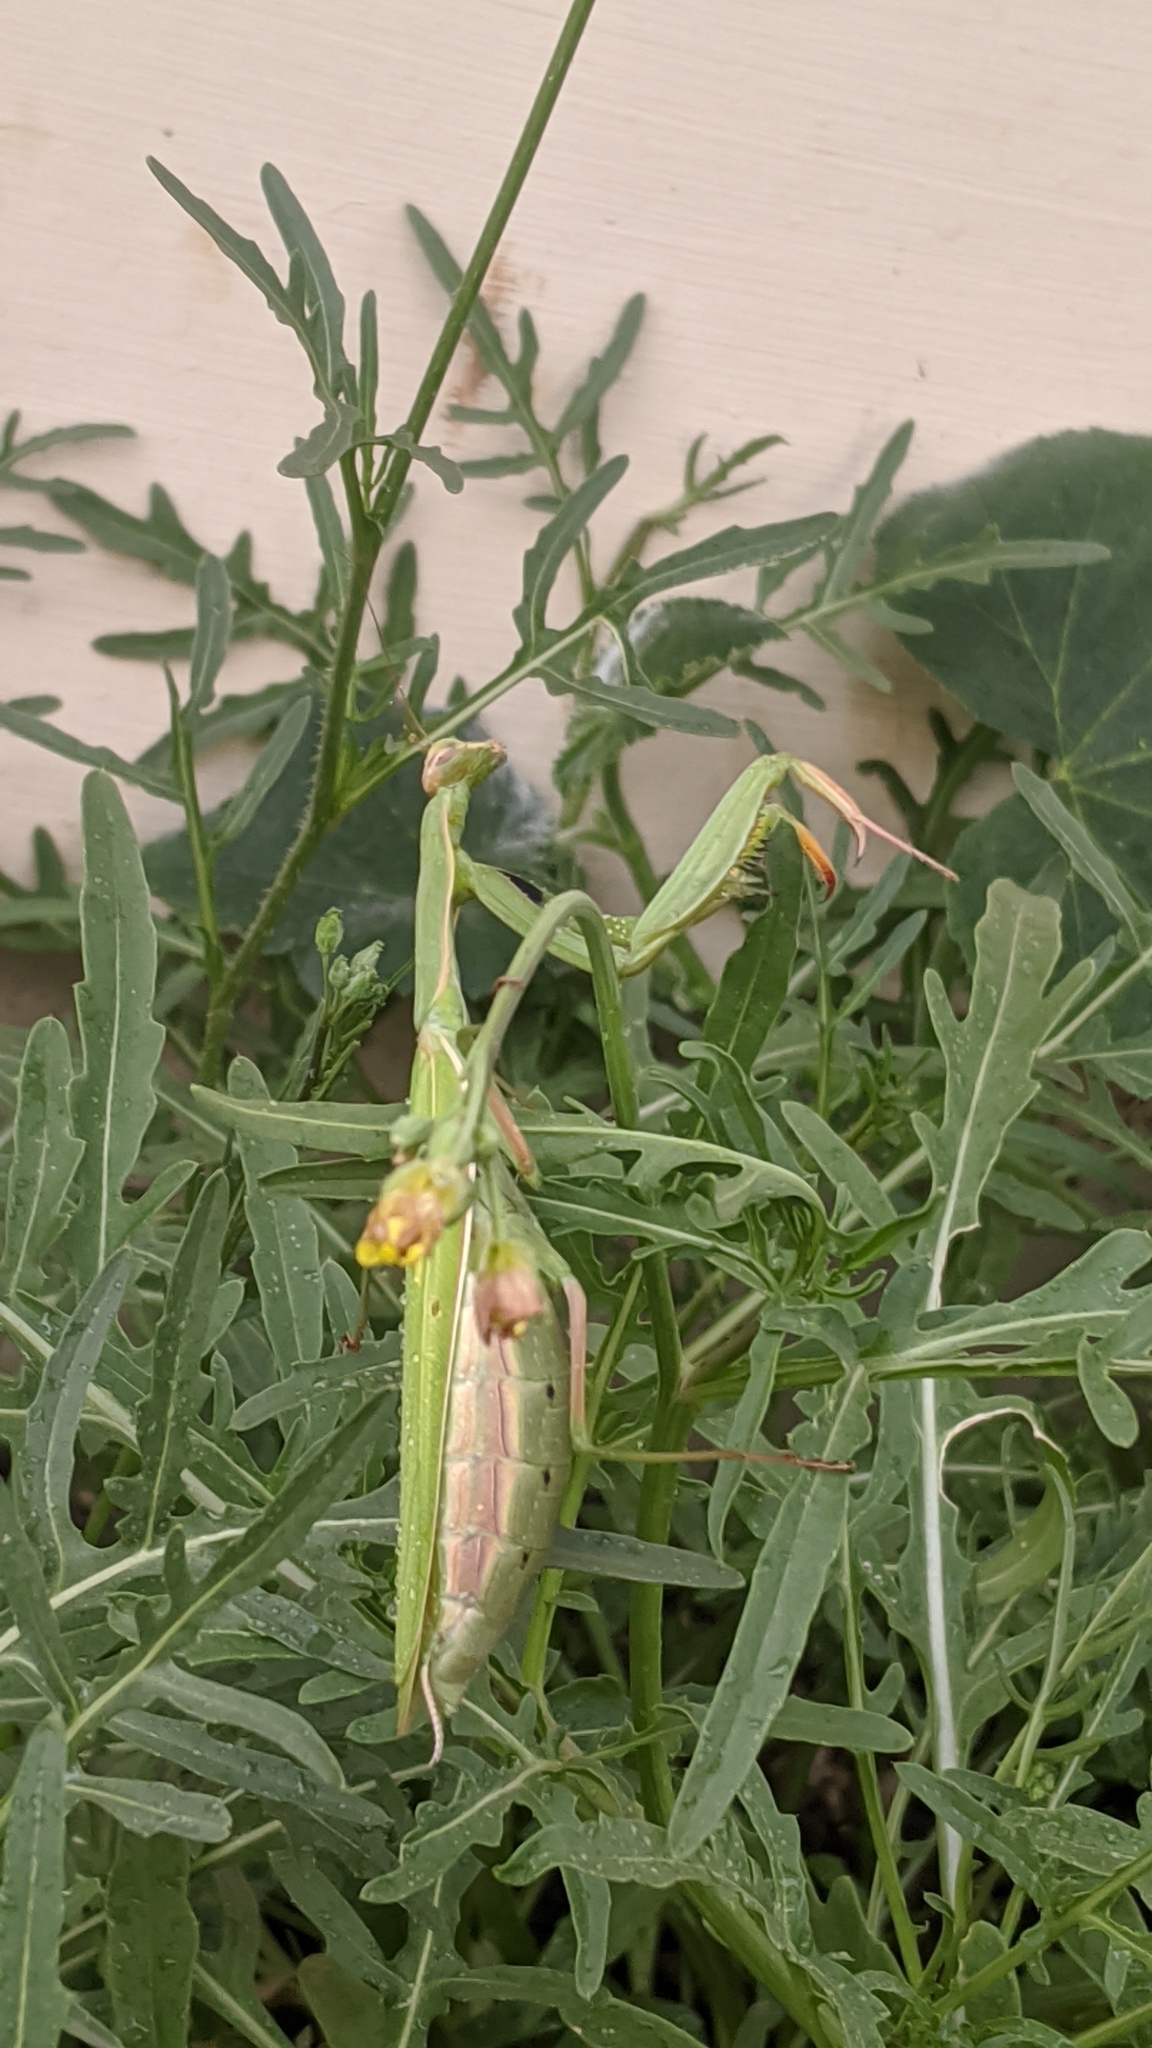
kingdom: Animalia
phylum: Arthropoda
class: Insecta
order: Mantodea
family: Mantidae
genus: Mantis
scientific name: Mantis religiosa
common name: Praying mantis
